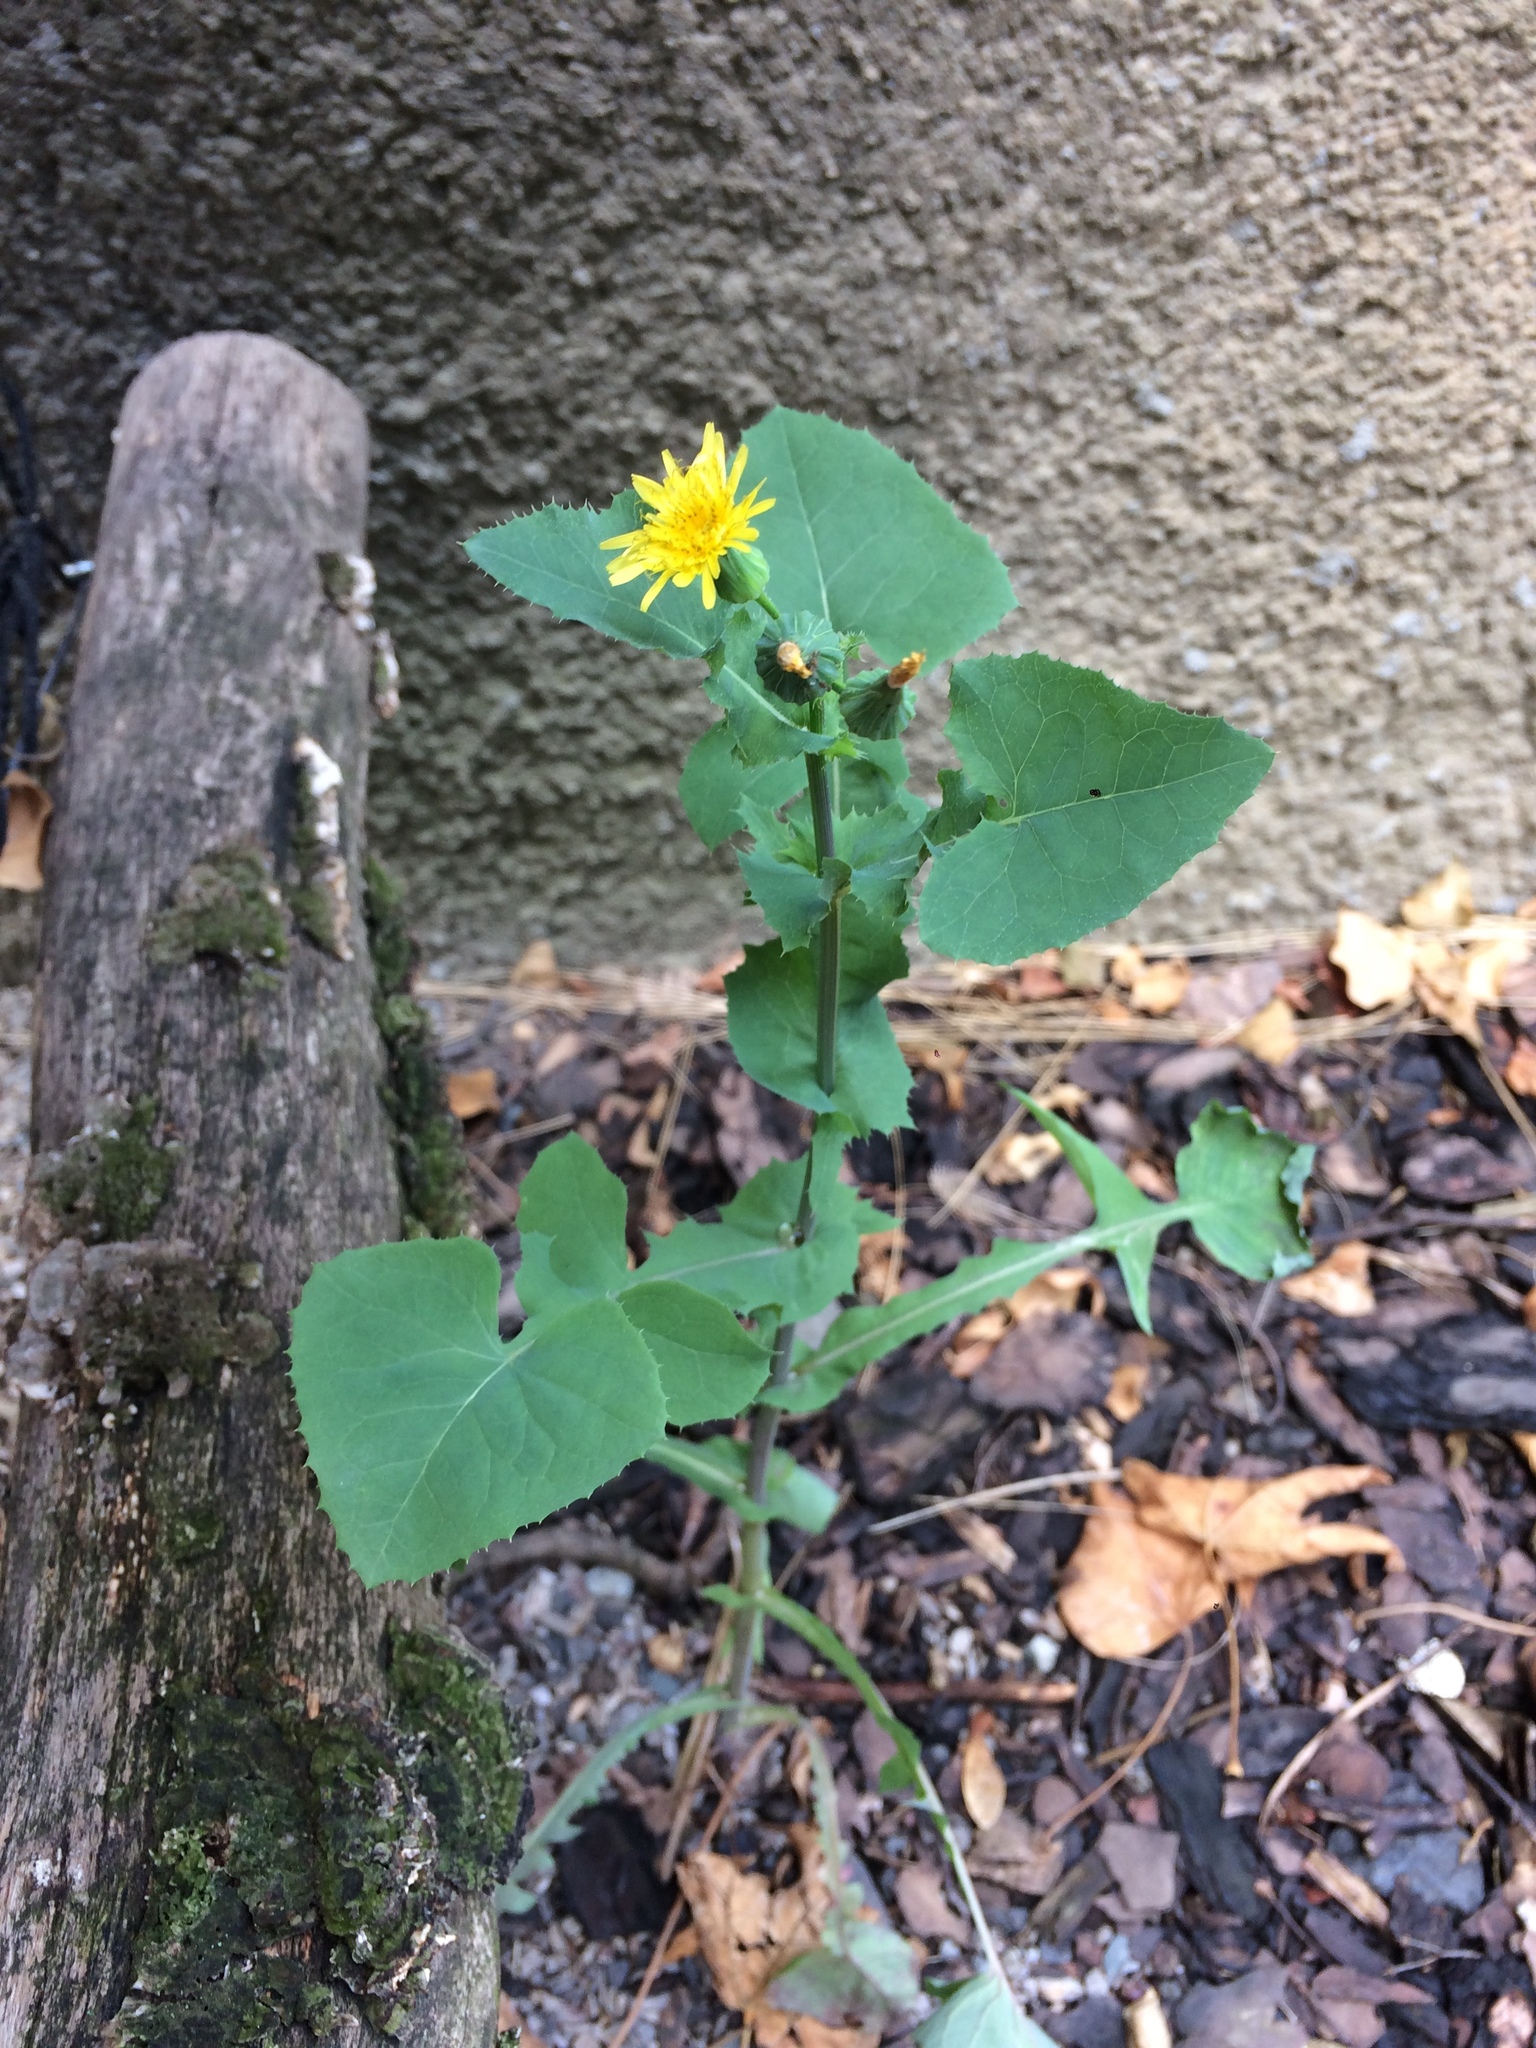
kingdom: Plantae
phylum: Tracheophyta
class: Magnoliopsida
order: Asterales
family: Asteraceae
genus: Sonchus
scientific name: Sonchus oleraceus
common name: Common sowthistle
